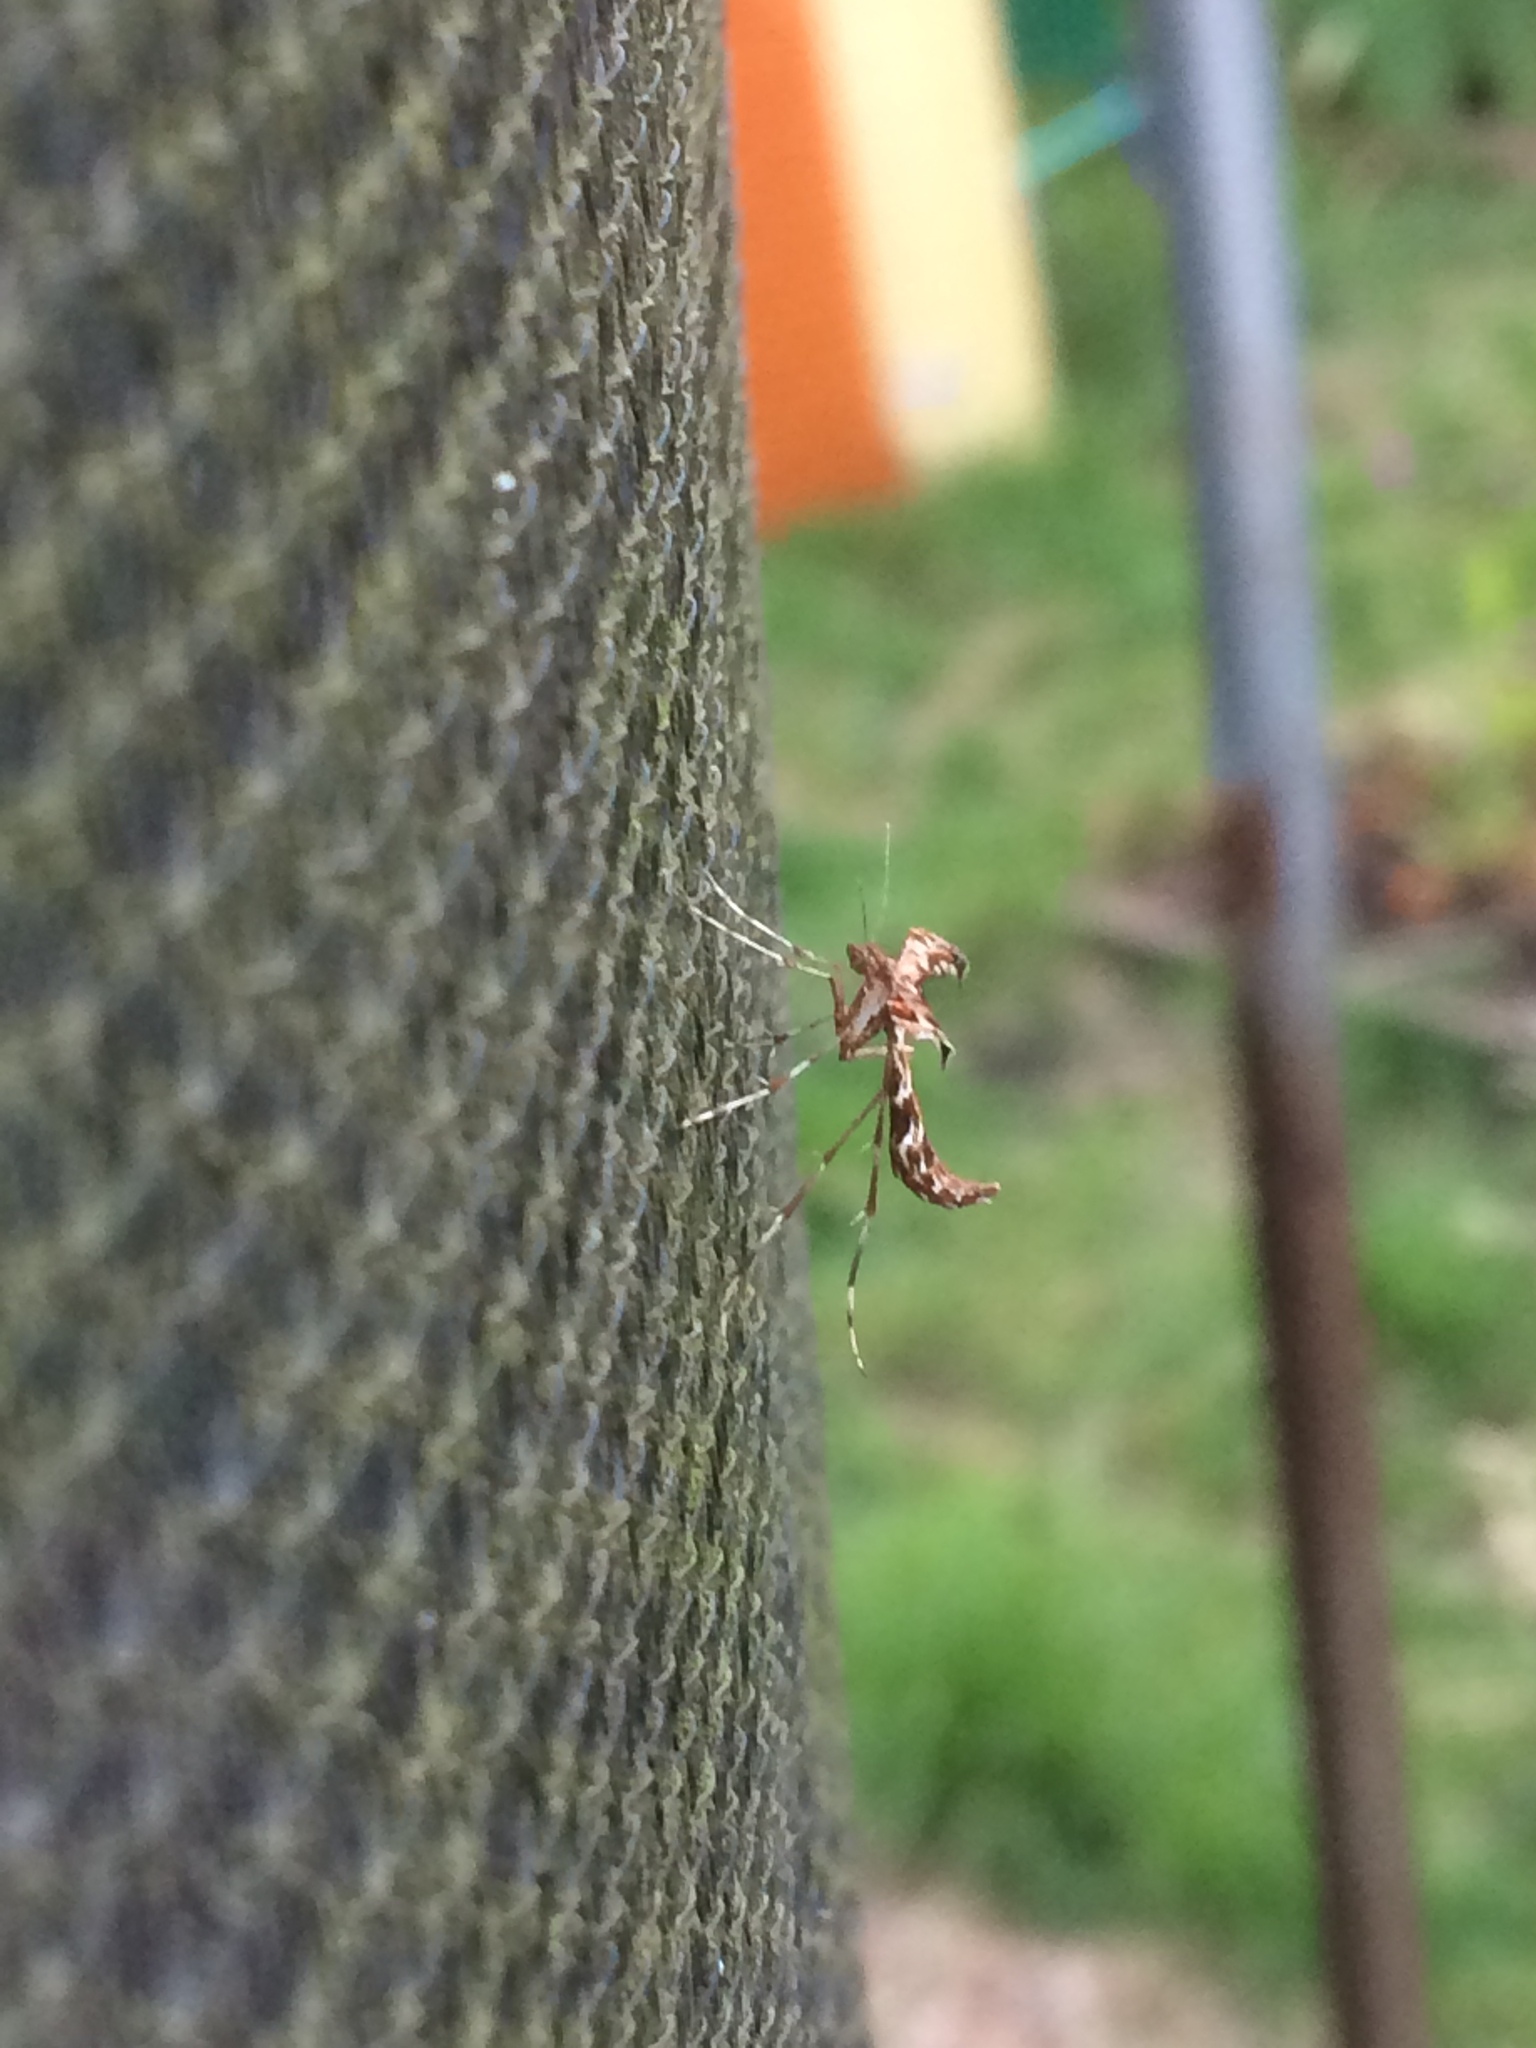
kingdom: Animalia
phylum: Arthropoda
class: Insecta
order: Lepidoptera
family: Pterophoridae
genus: Amblyptilia
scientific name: Amblyptilia acanthadactyla
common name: Beautiful plume
